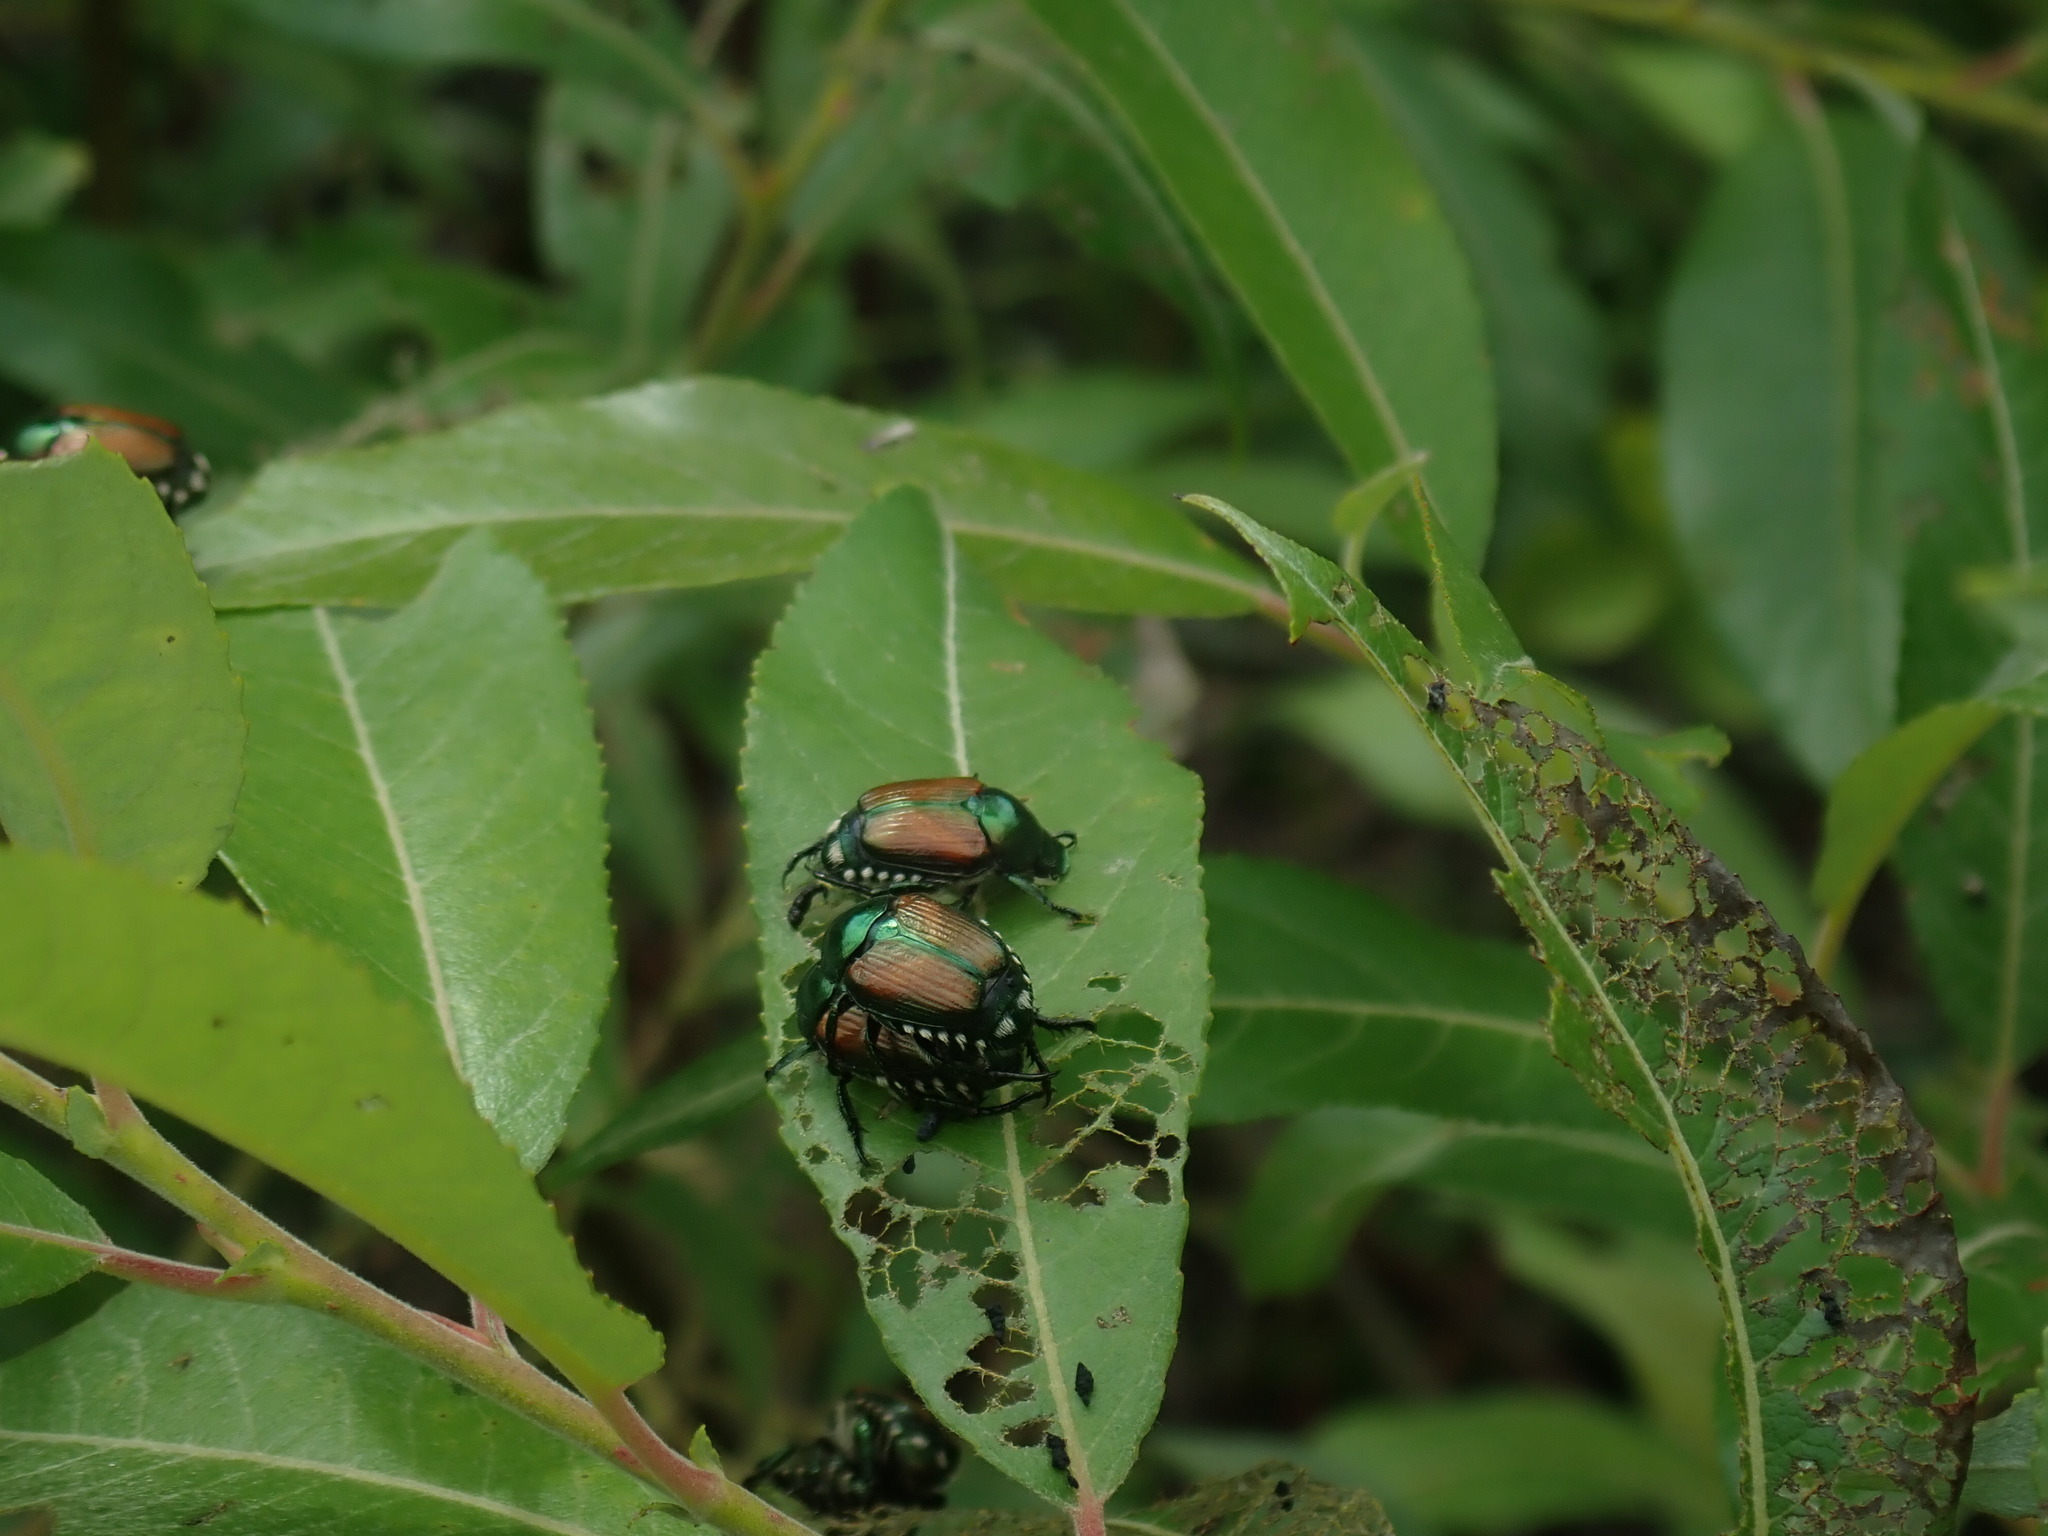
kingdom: Animalia
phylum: Arthropoda
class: Insecta
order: Coleoptera
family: Scarabaeidae
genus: Popillia
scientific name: Popillia japonica
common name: Japanese beetle
